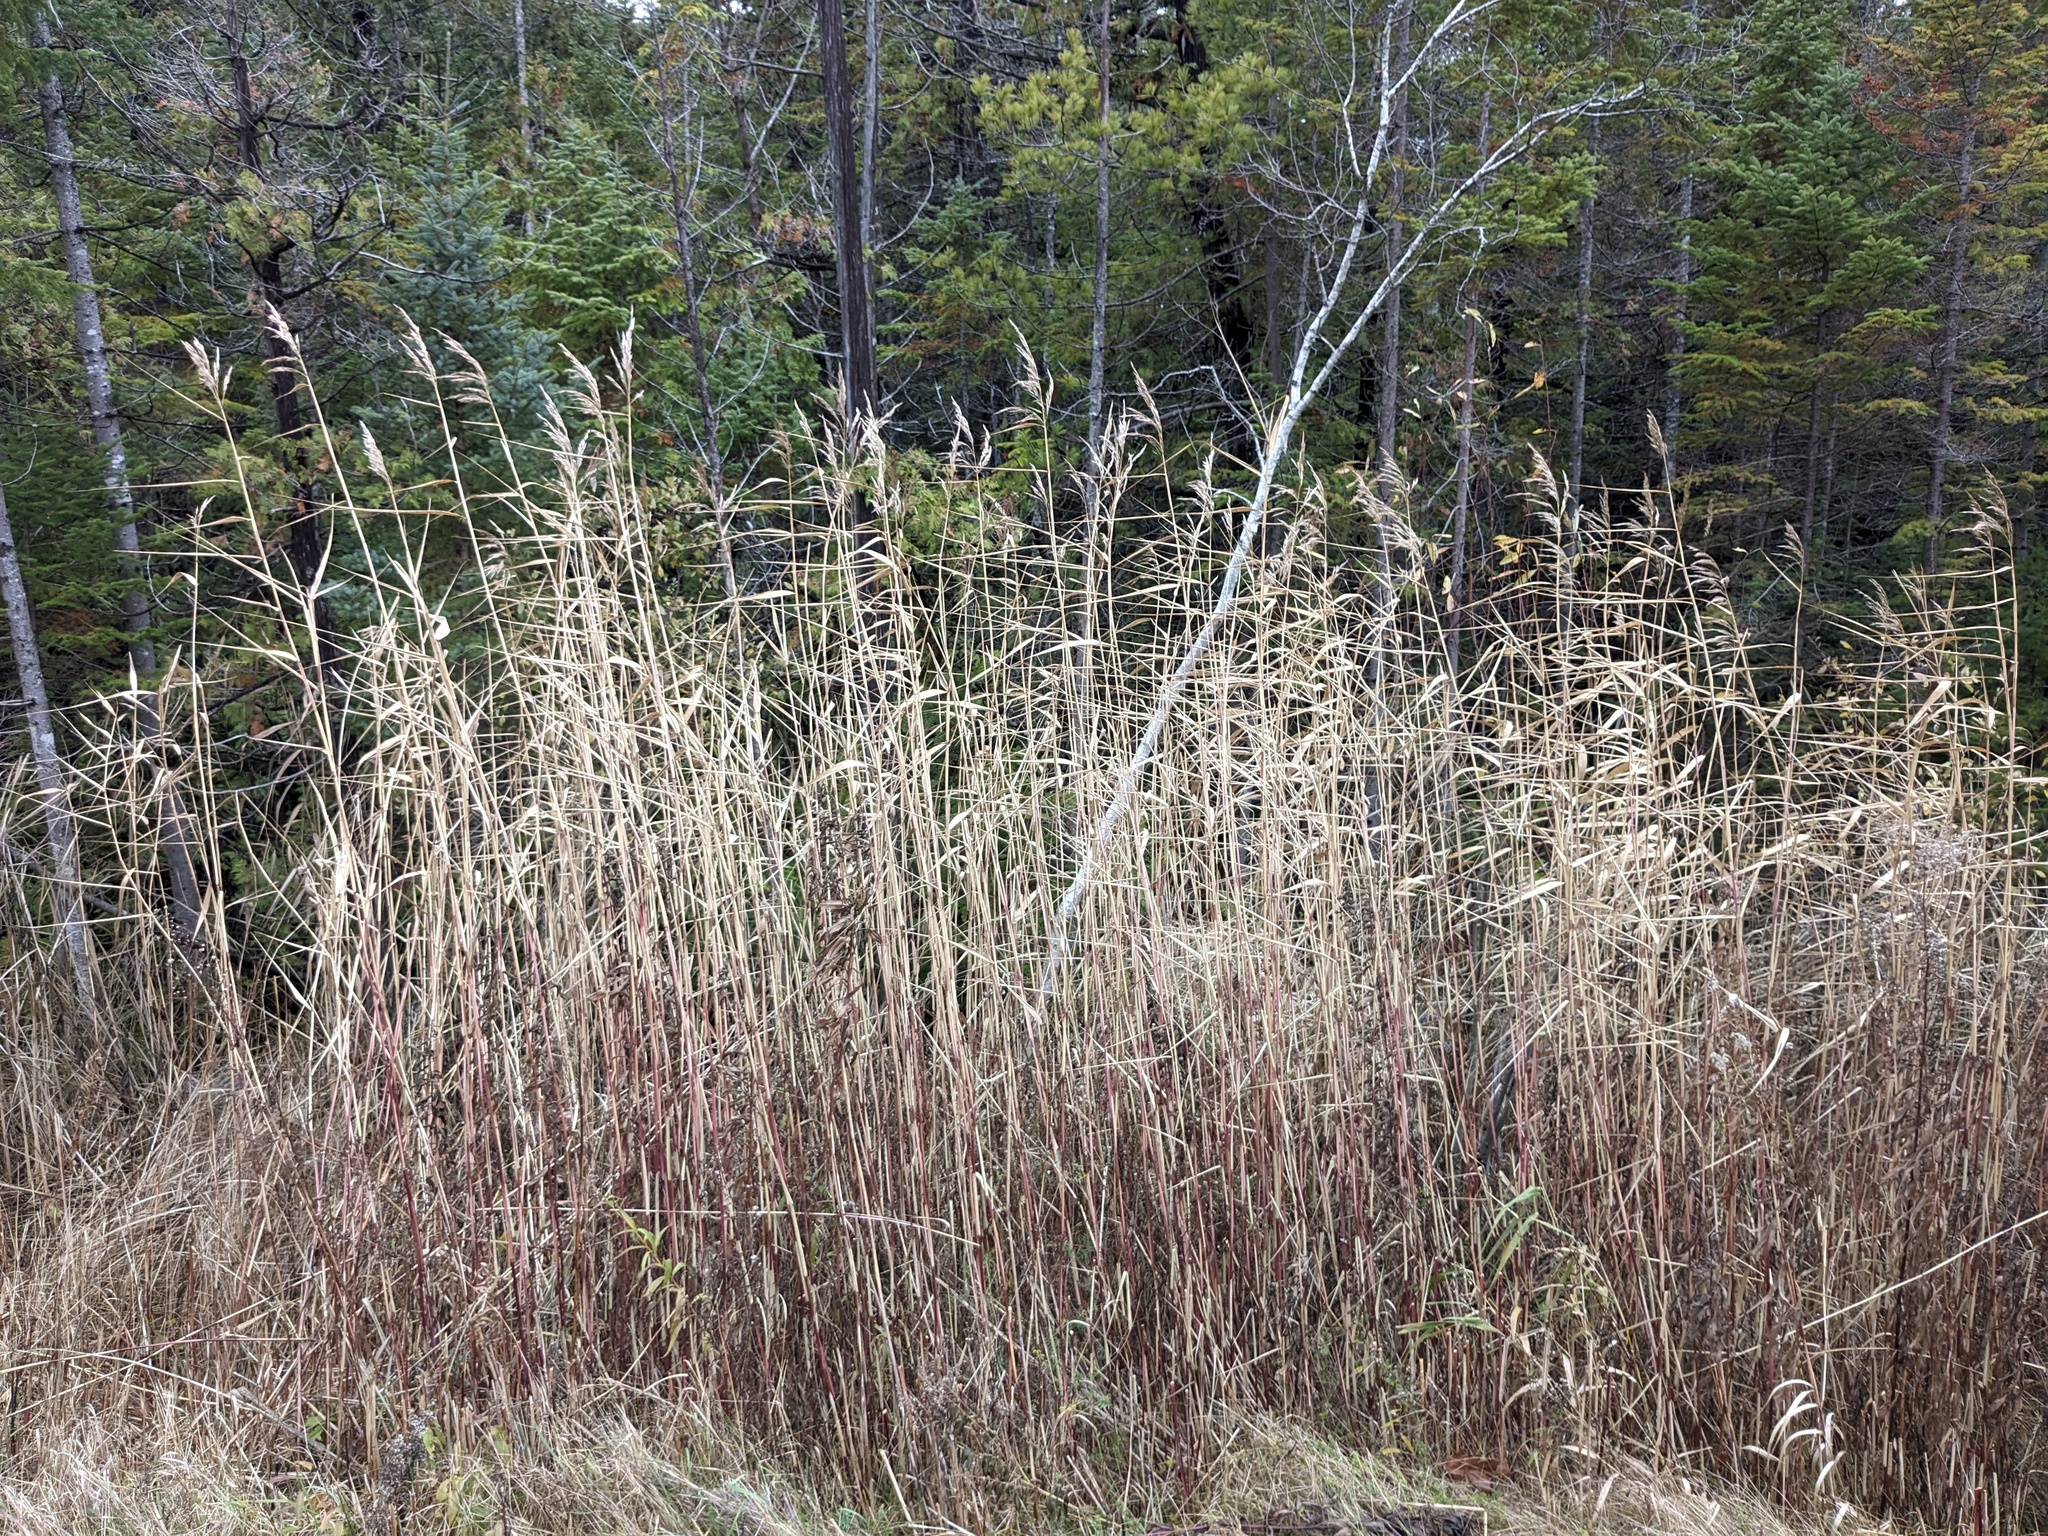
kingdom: Plantae
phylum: Tracheophyta
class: Liliopsida
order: Poales
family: Poaceae
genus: Phragmites
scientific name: Phragmites australis
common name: Common reed
